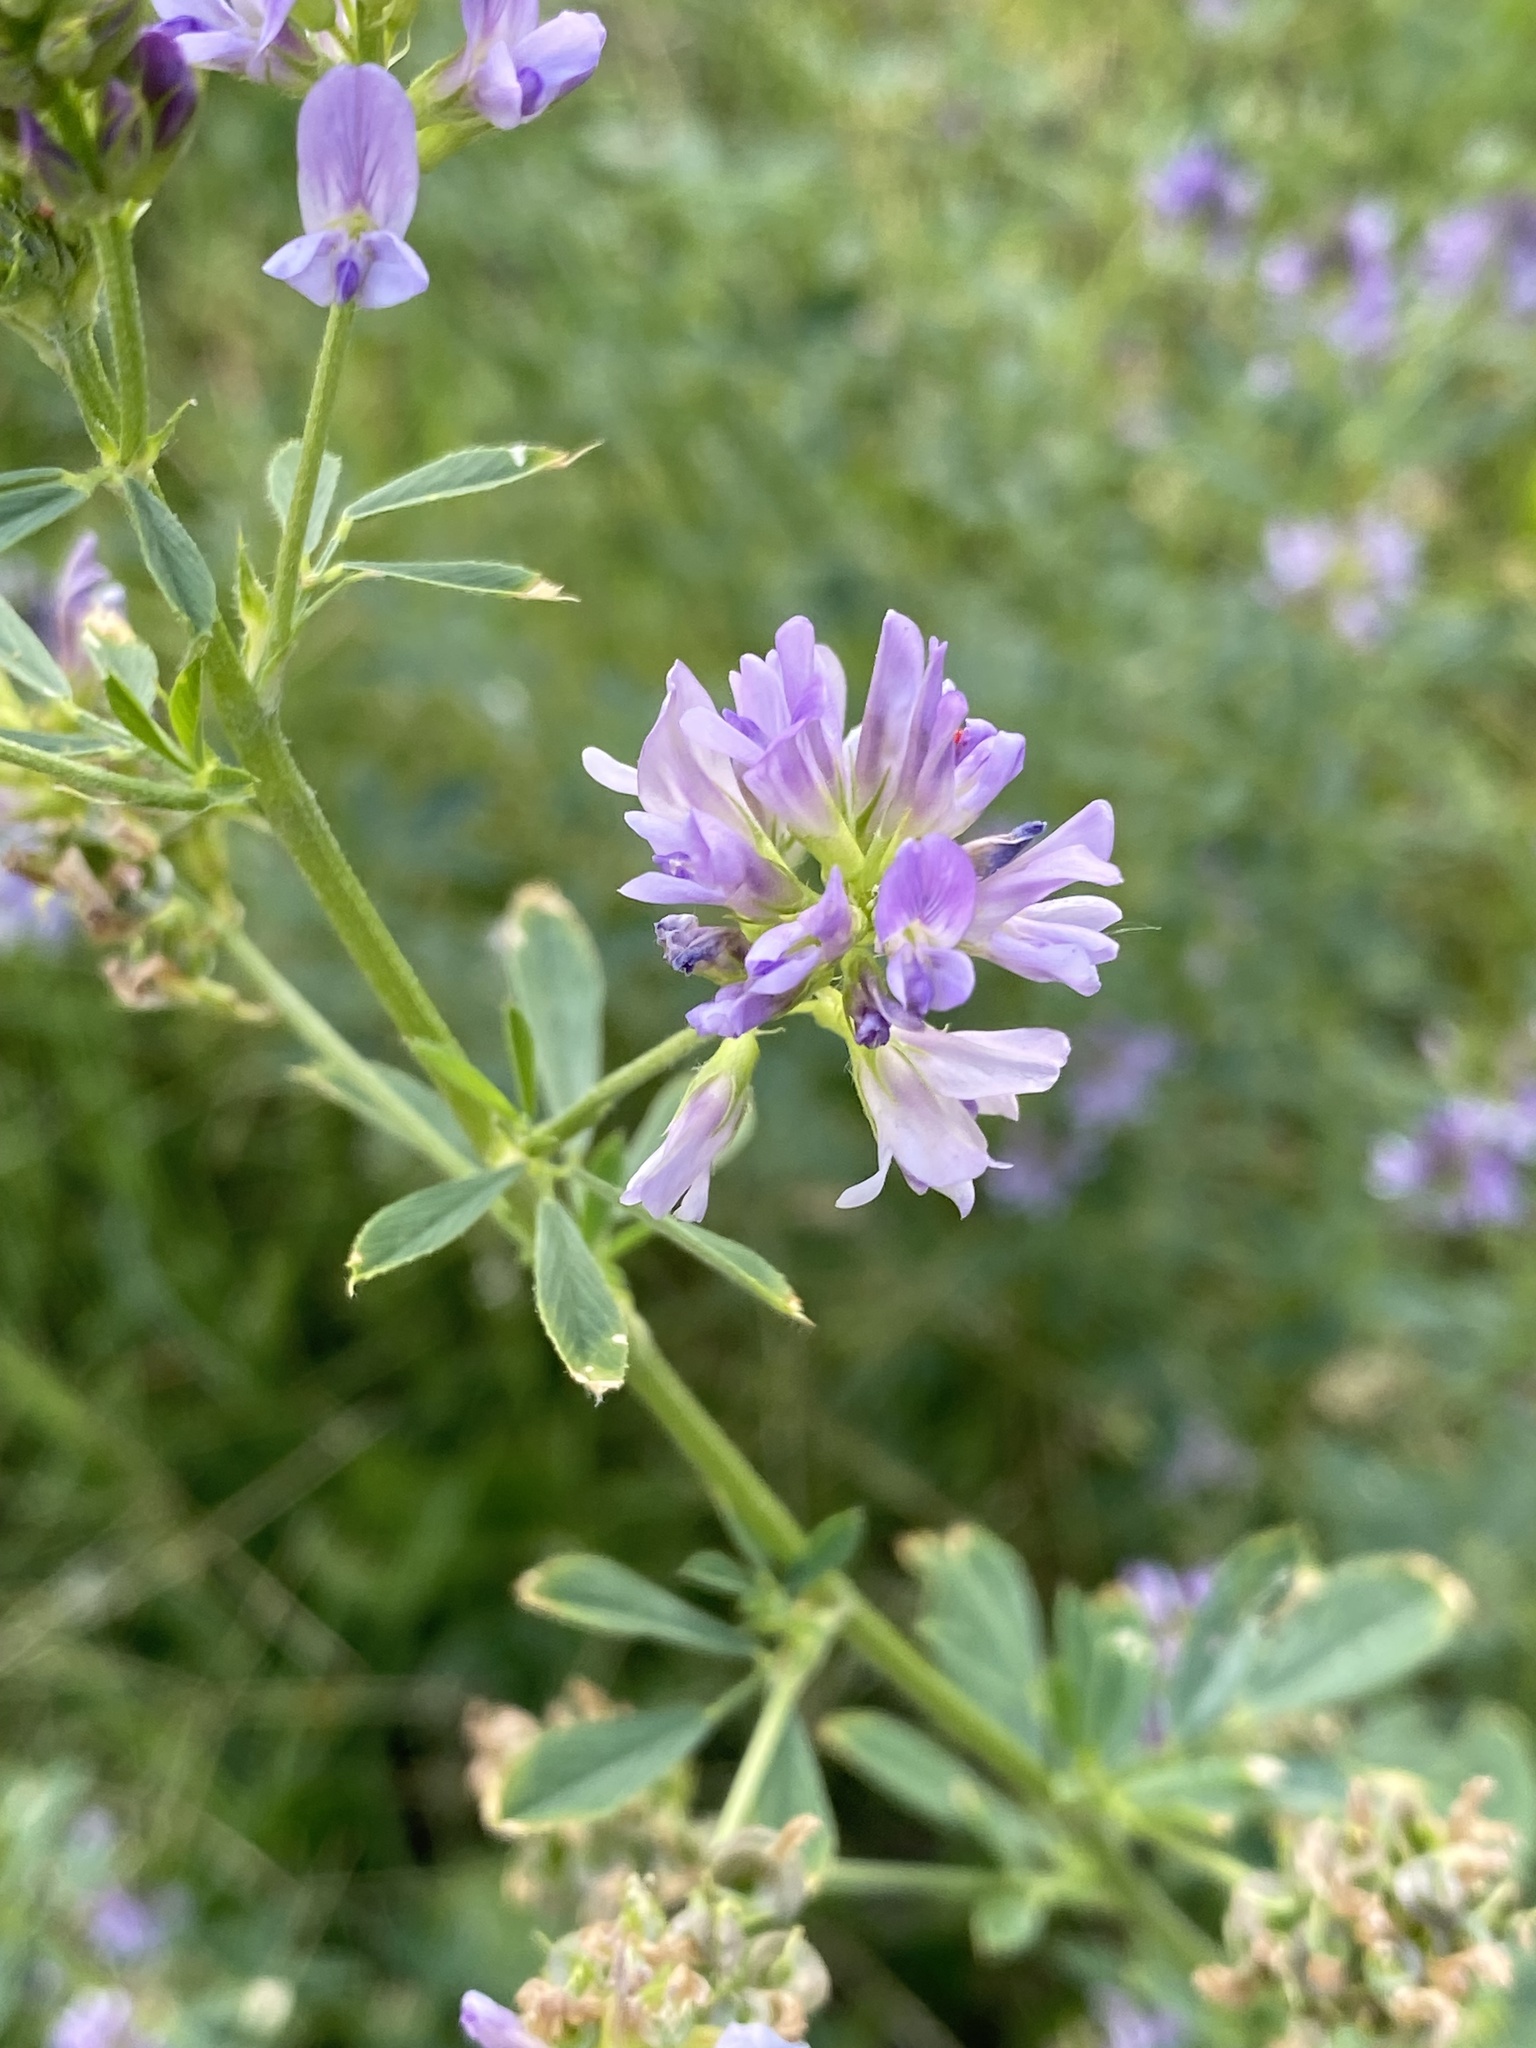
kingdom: Plantae
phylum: Tracheophyta
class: Magnoliopsida
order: Fabales
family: Fabaceae
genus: Medicago
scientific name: Medicago sativa
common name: Alfalfa
